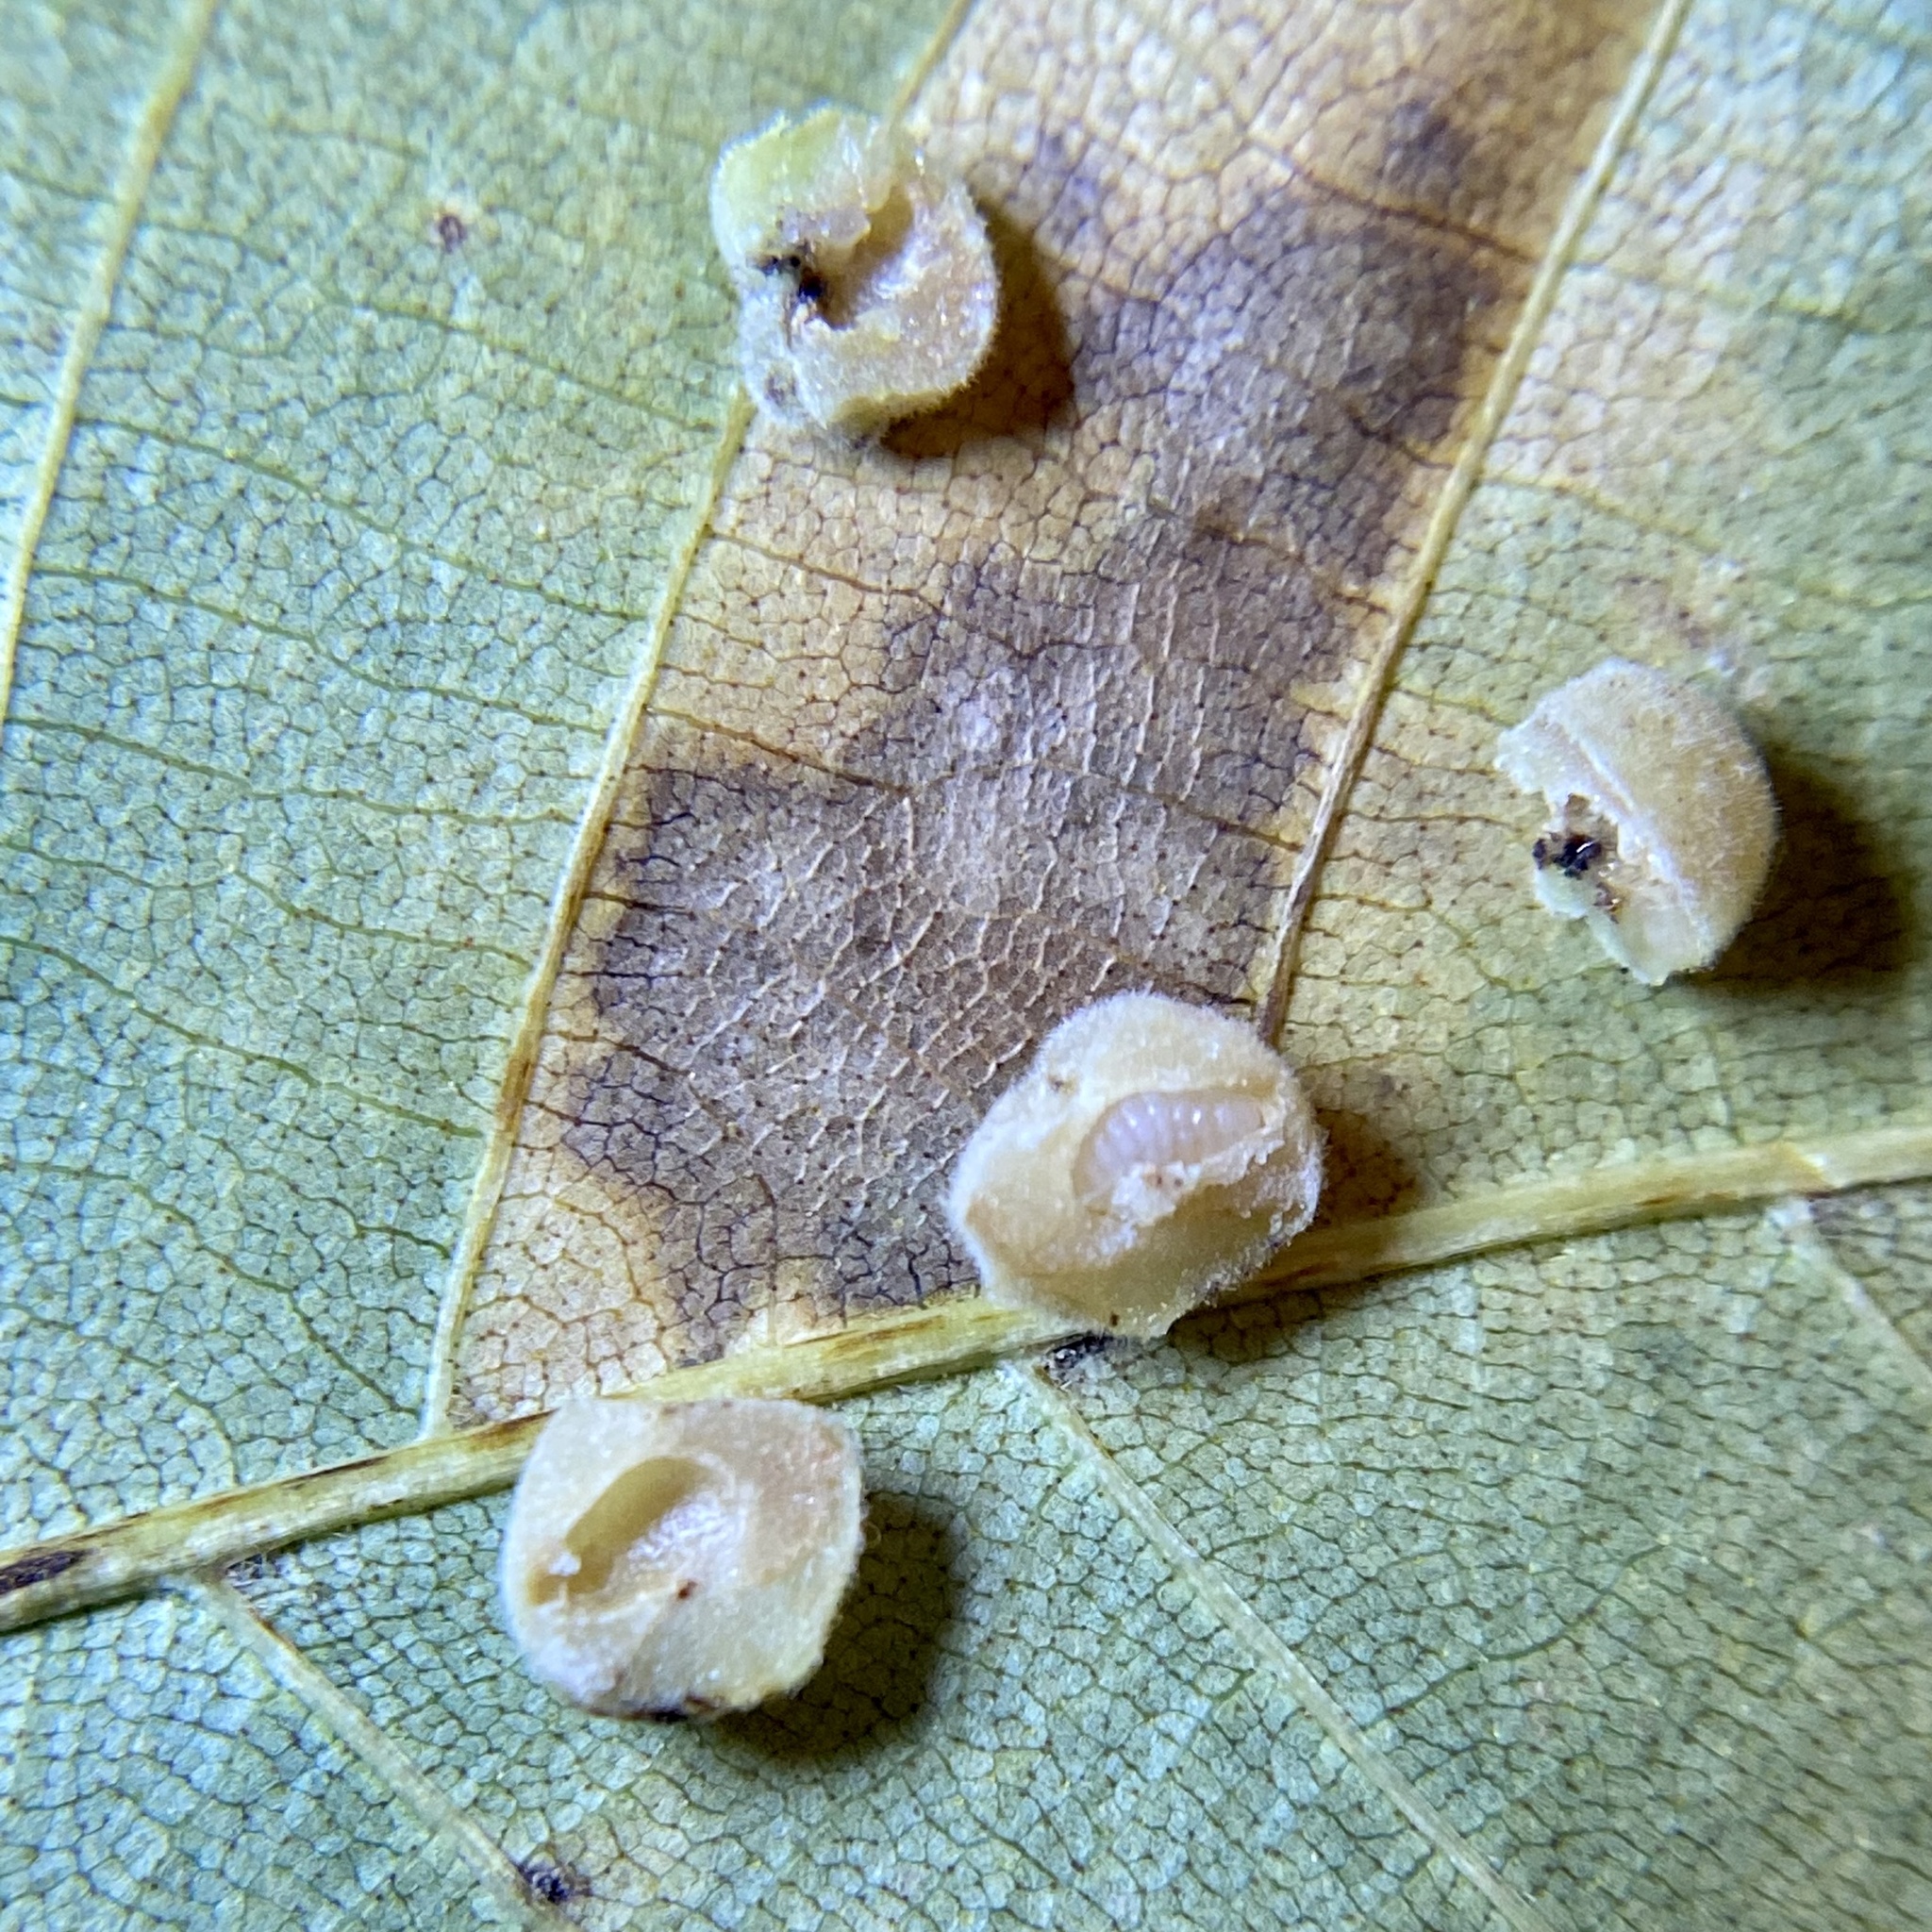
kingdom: Animalia
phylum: Arthropoda
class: Insecta
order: Diptera
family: Cecidomyiidae
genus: Caryomyia
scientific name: Caryomyia persicoides
